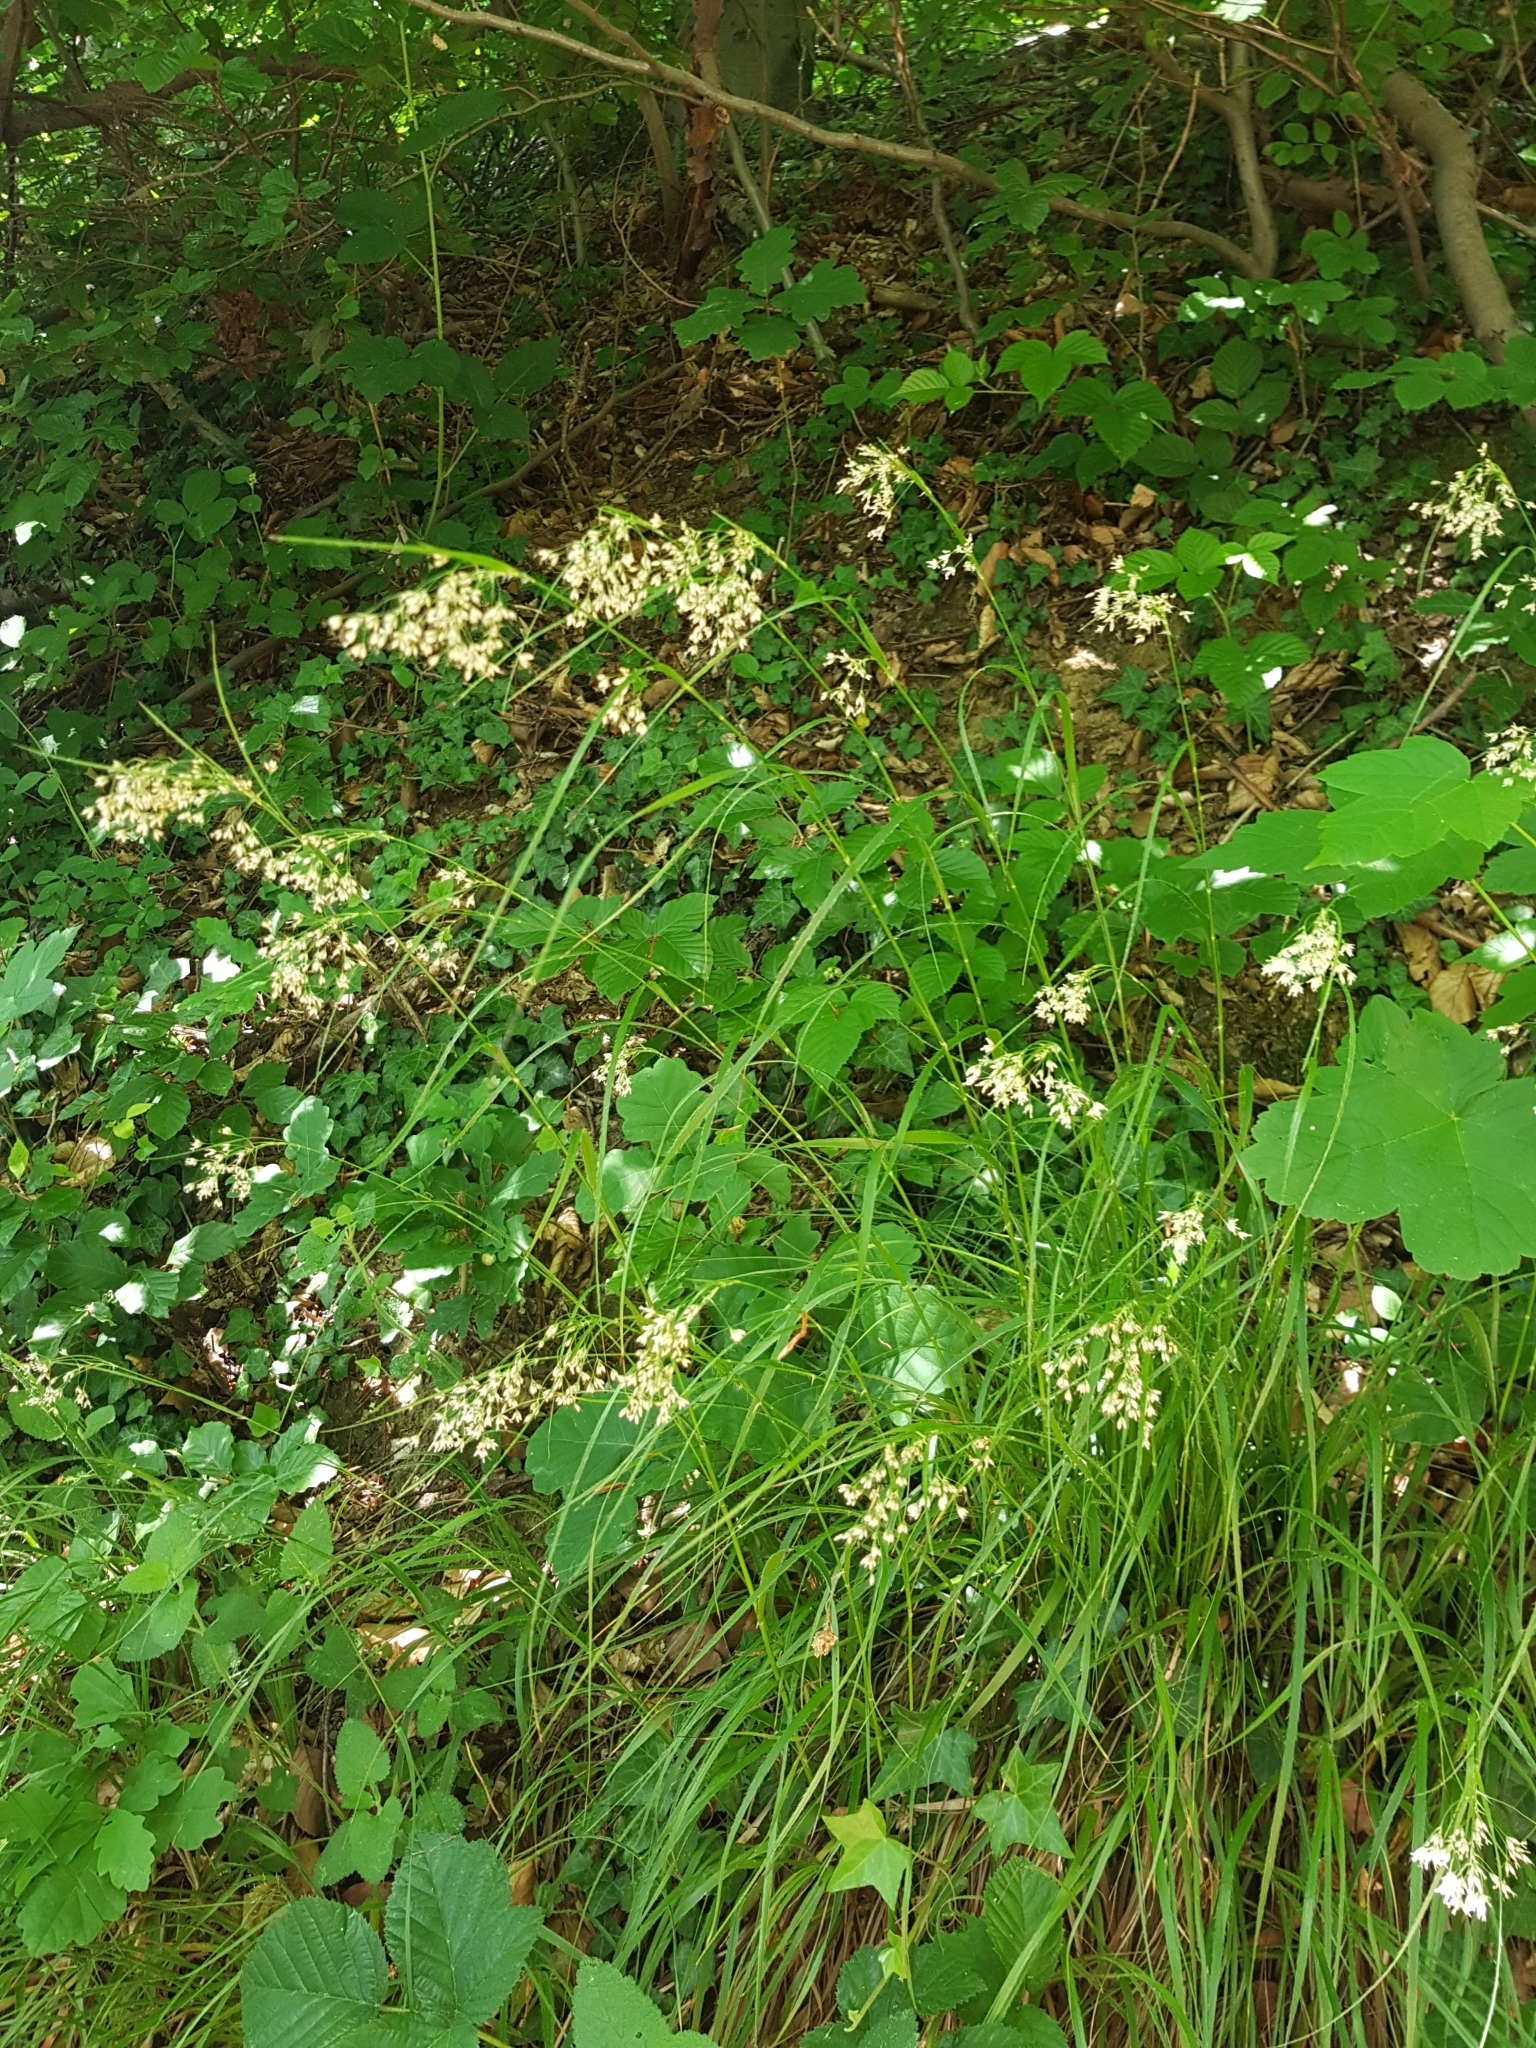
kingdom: Plantae
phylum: Tracheophyta
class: Liliopsida
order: Poales
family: Juncaceae
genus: Luzula
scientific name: Luzula luzuloides
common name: White wood-rush
